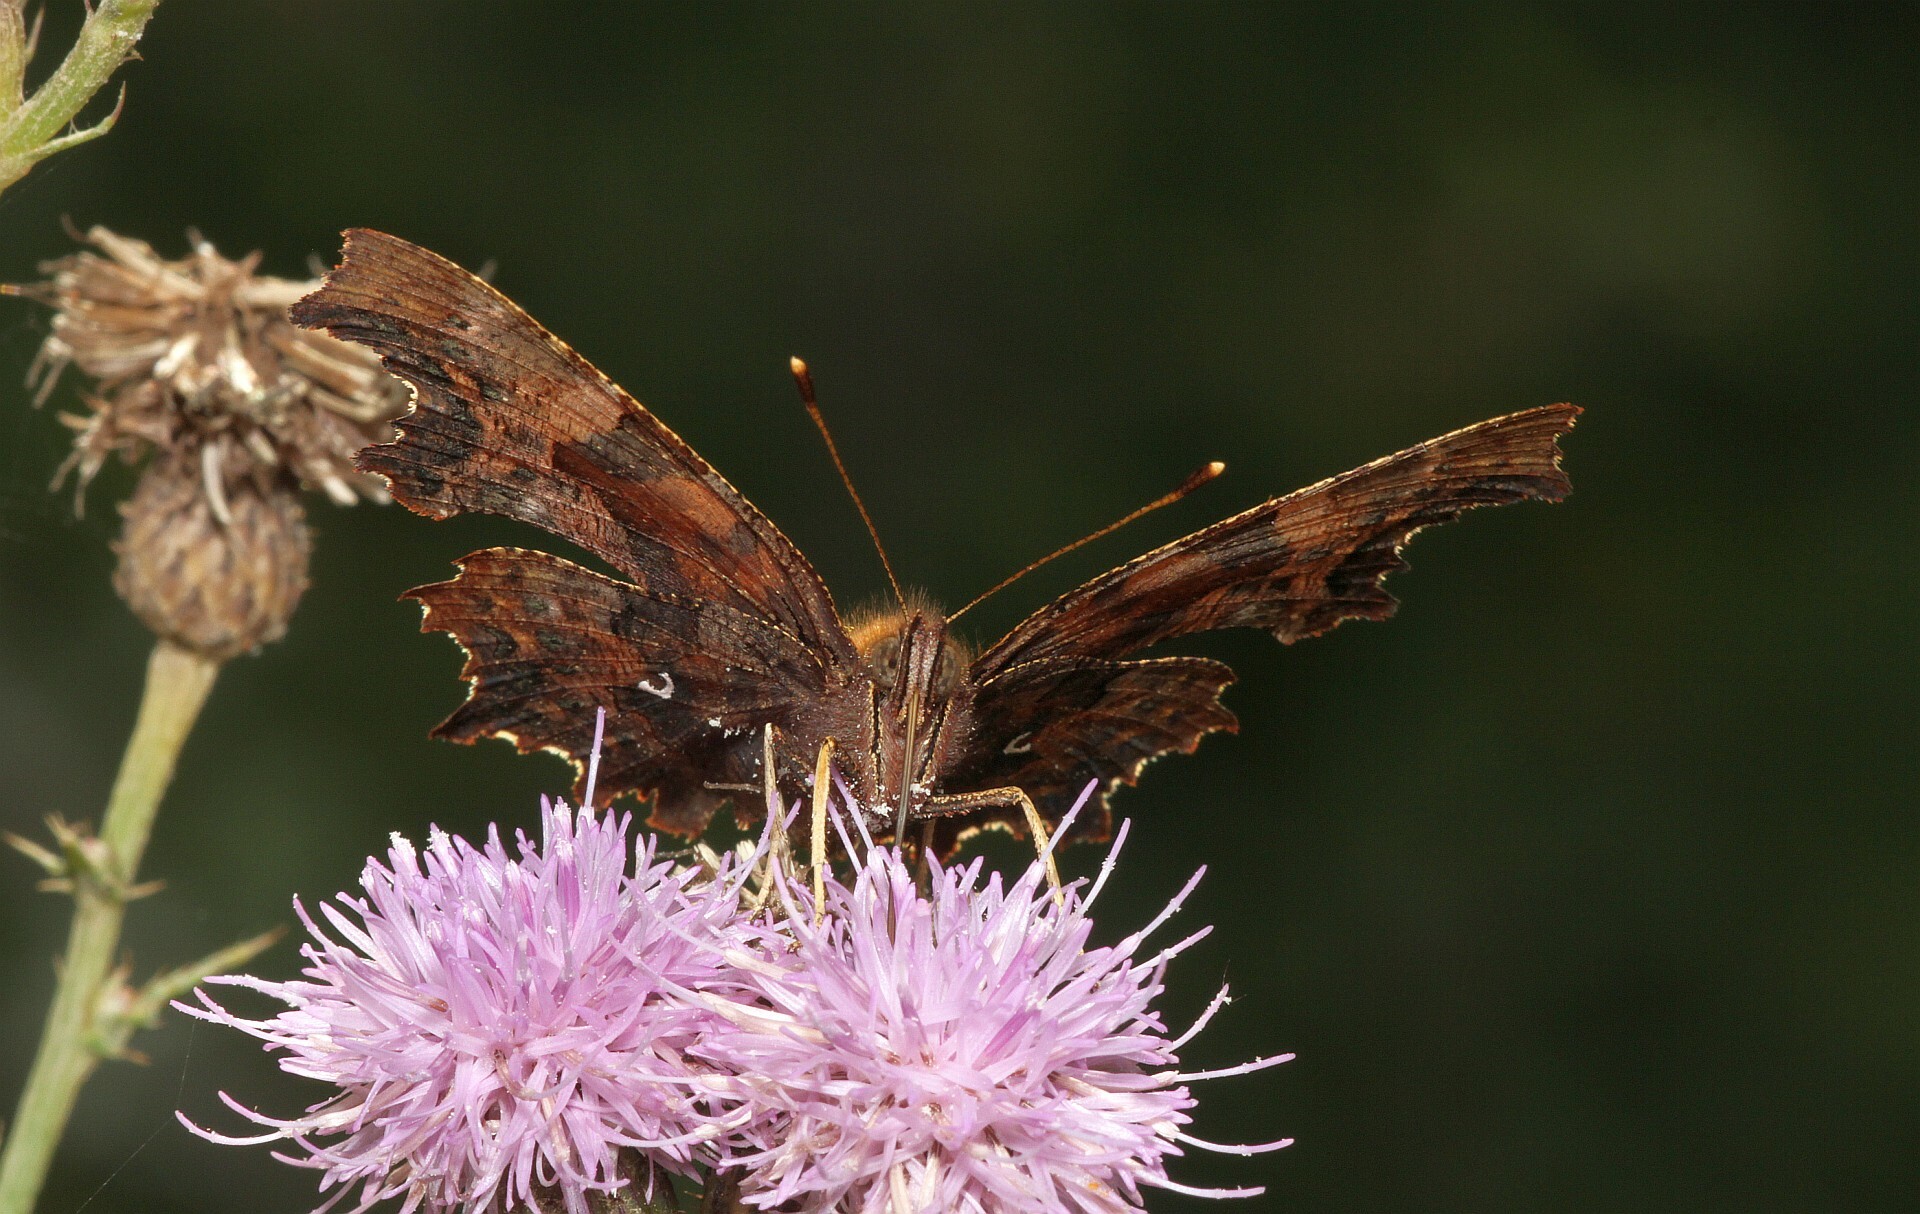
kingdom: Animalia
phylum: Arthropoda
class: Insecta
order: Lepidoptera
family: Nymphalidae
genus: Polygonia
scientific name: Polygonia c-album
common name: Comma
